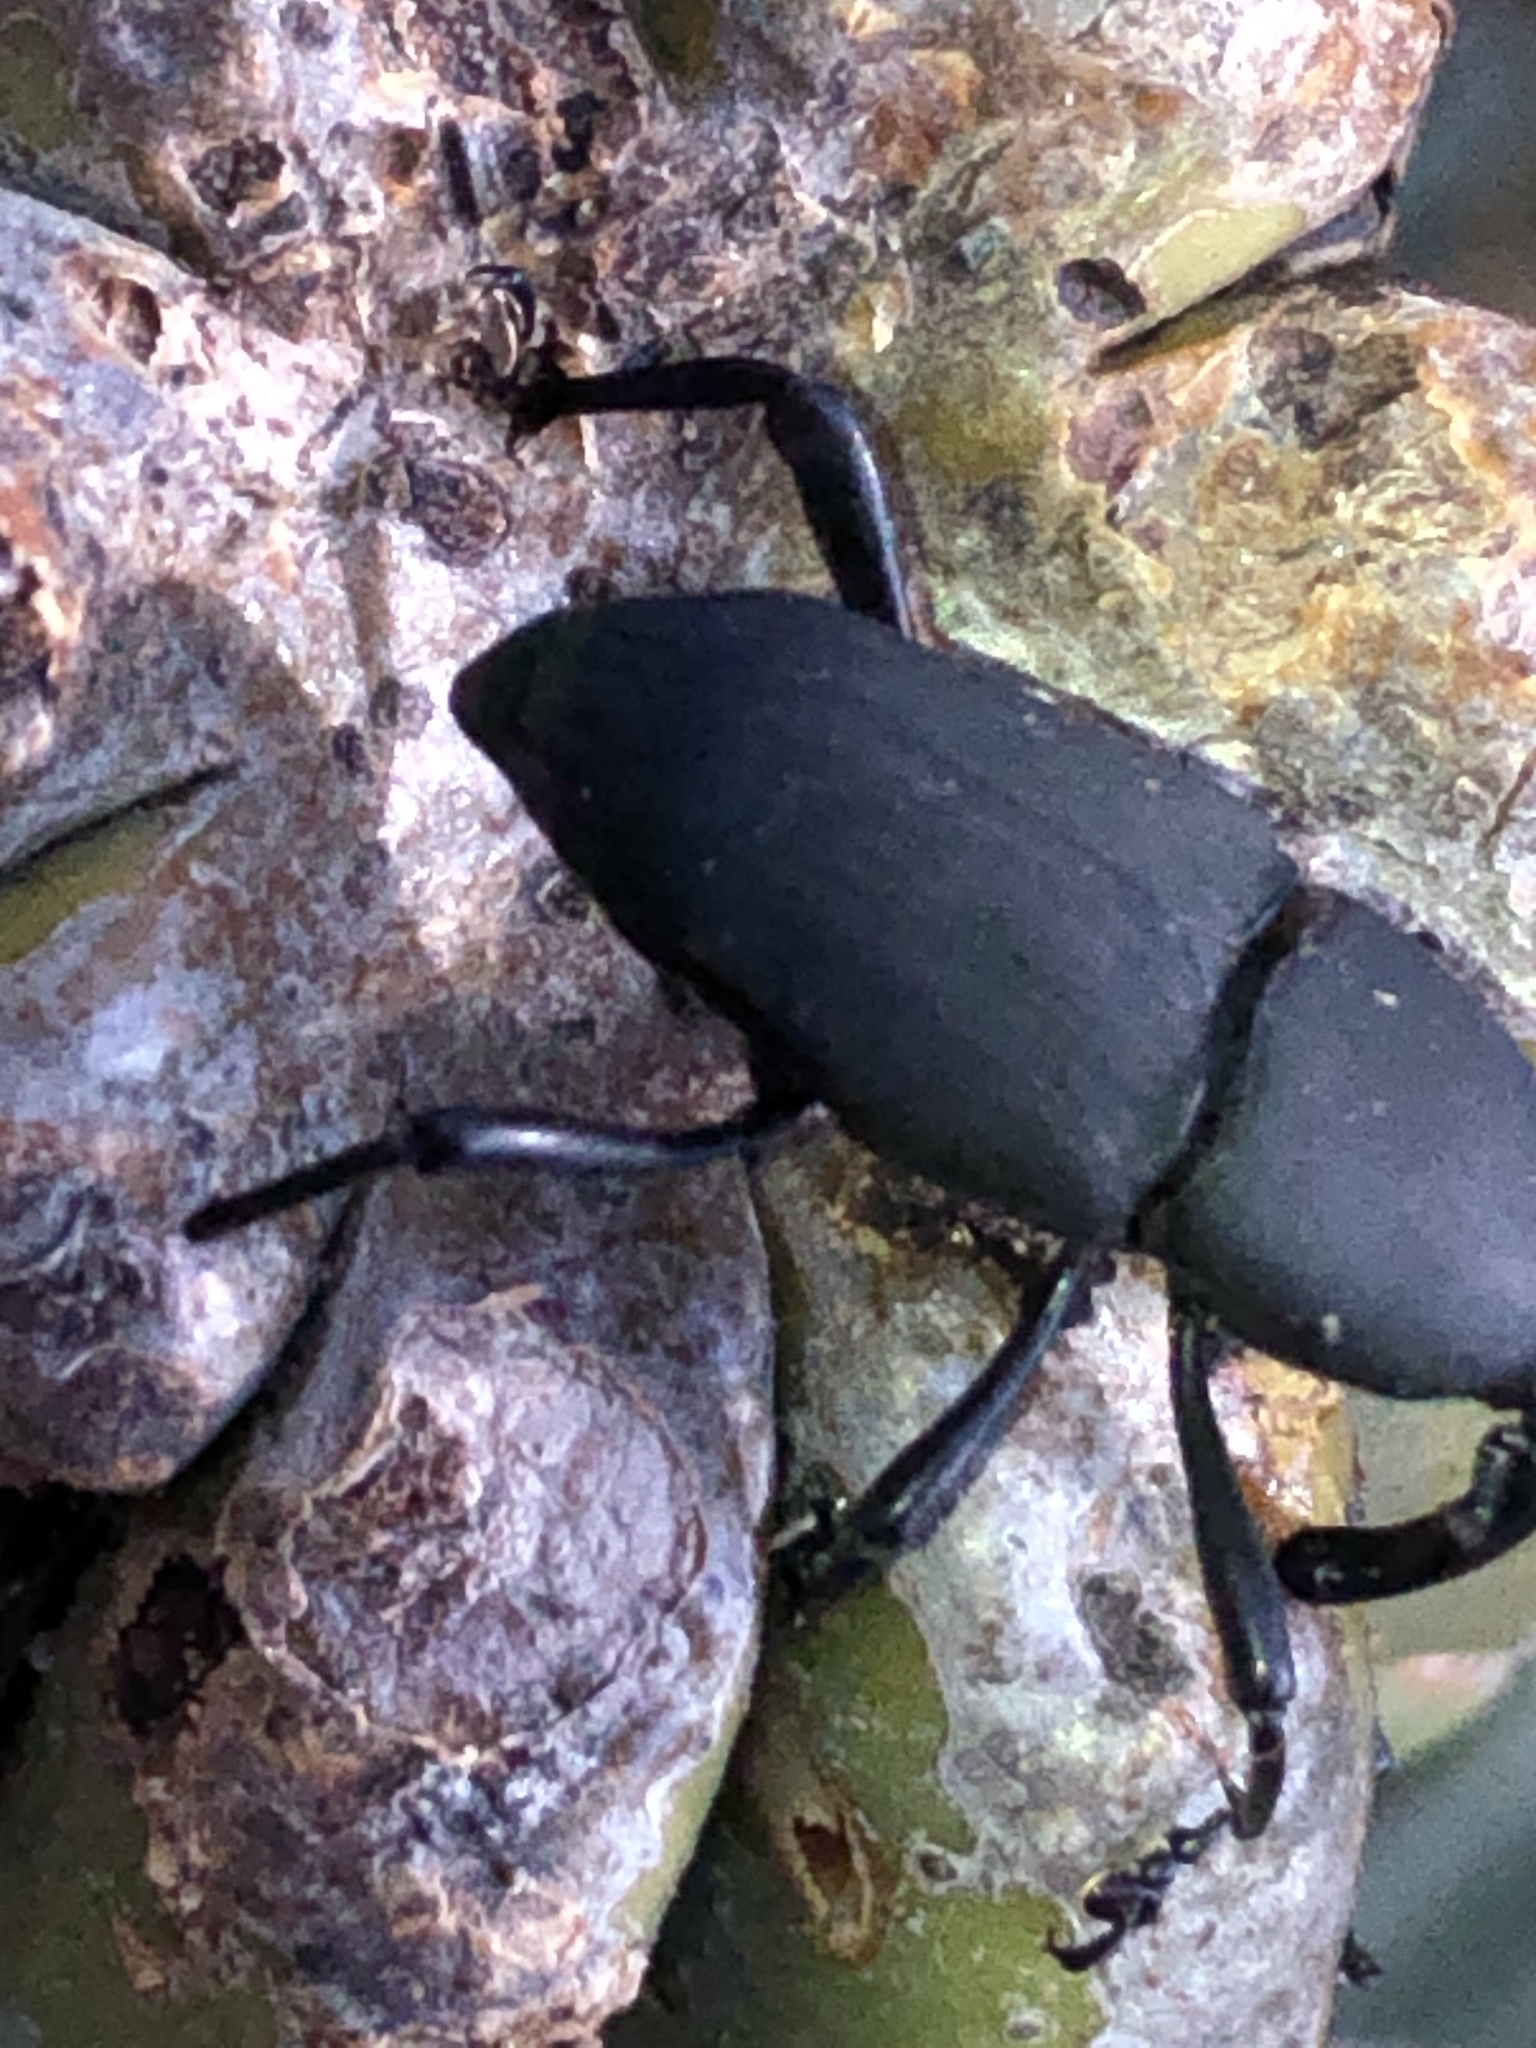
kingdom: Animalia
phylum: Arthropoda
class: Insecta
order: Coleoptera
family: Dryophthoridae
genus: Cactophagus
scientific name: Cactophagus spinolae
